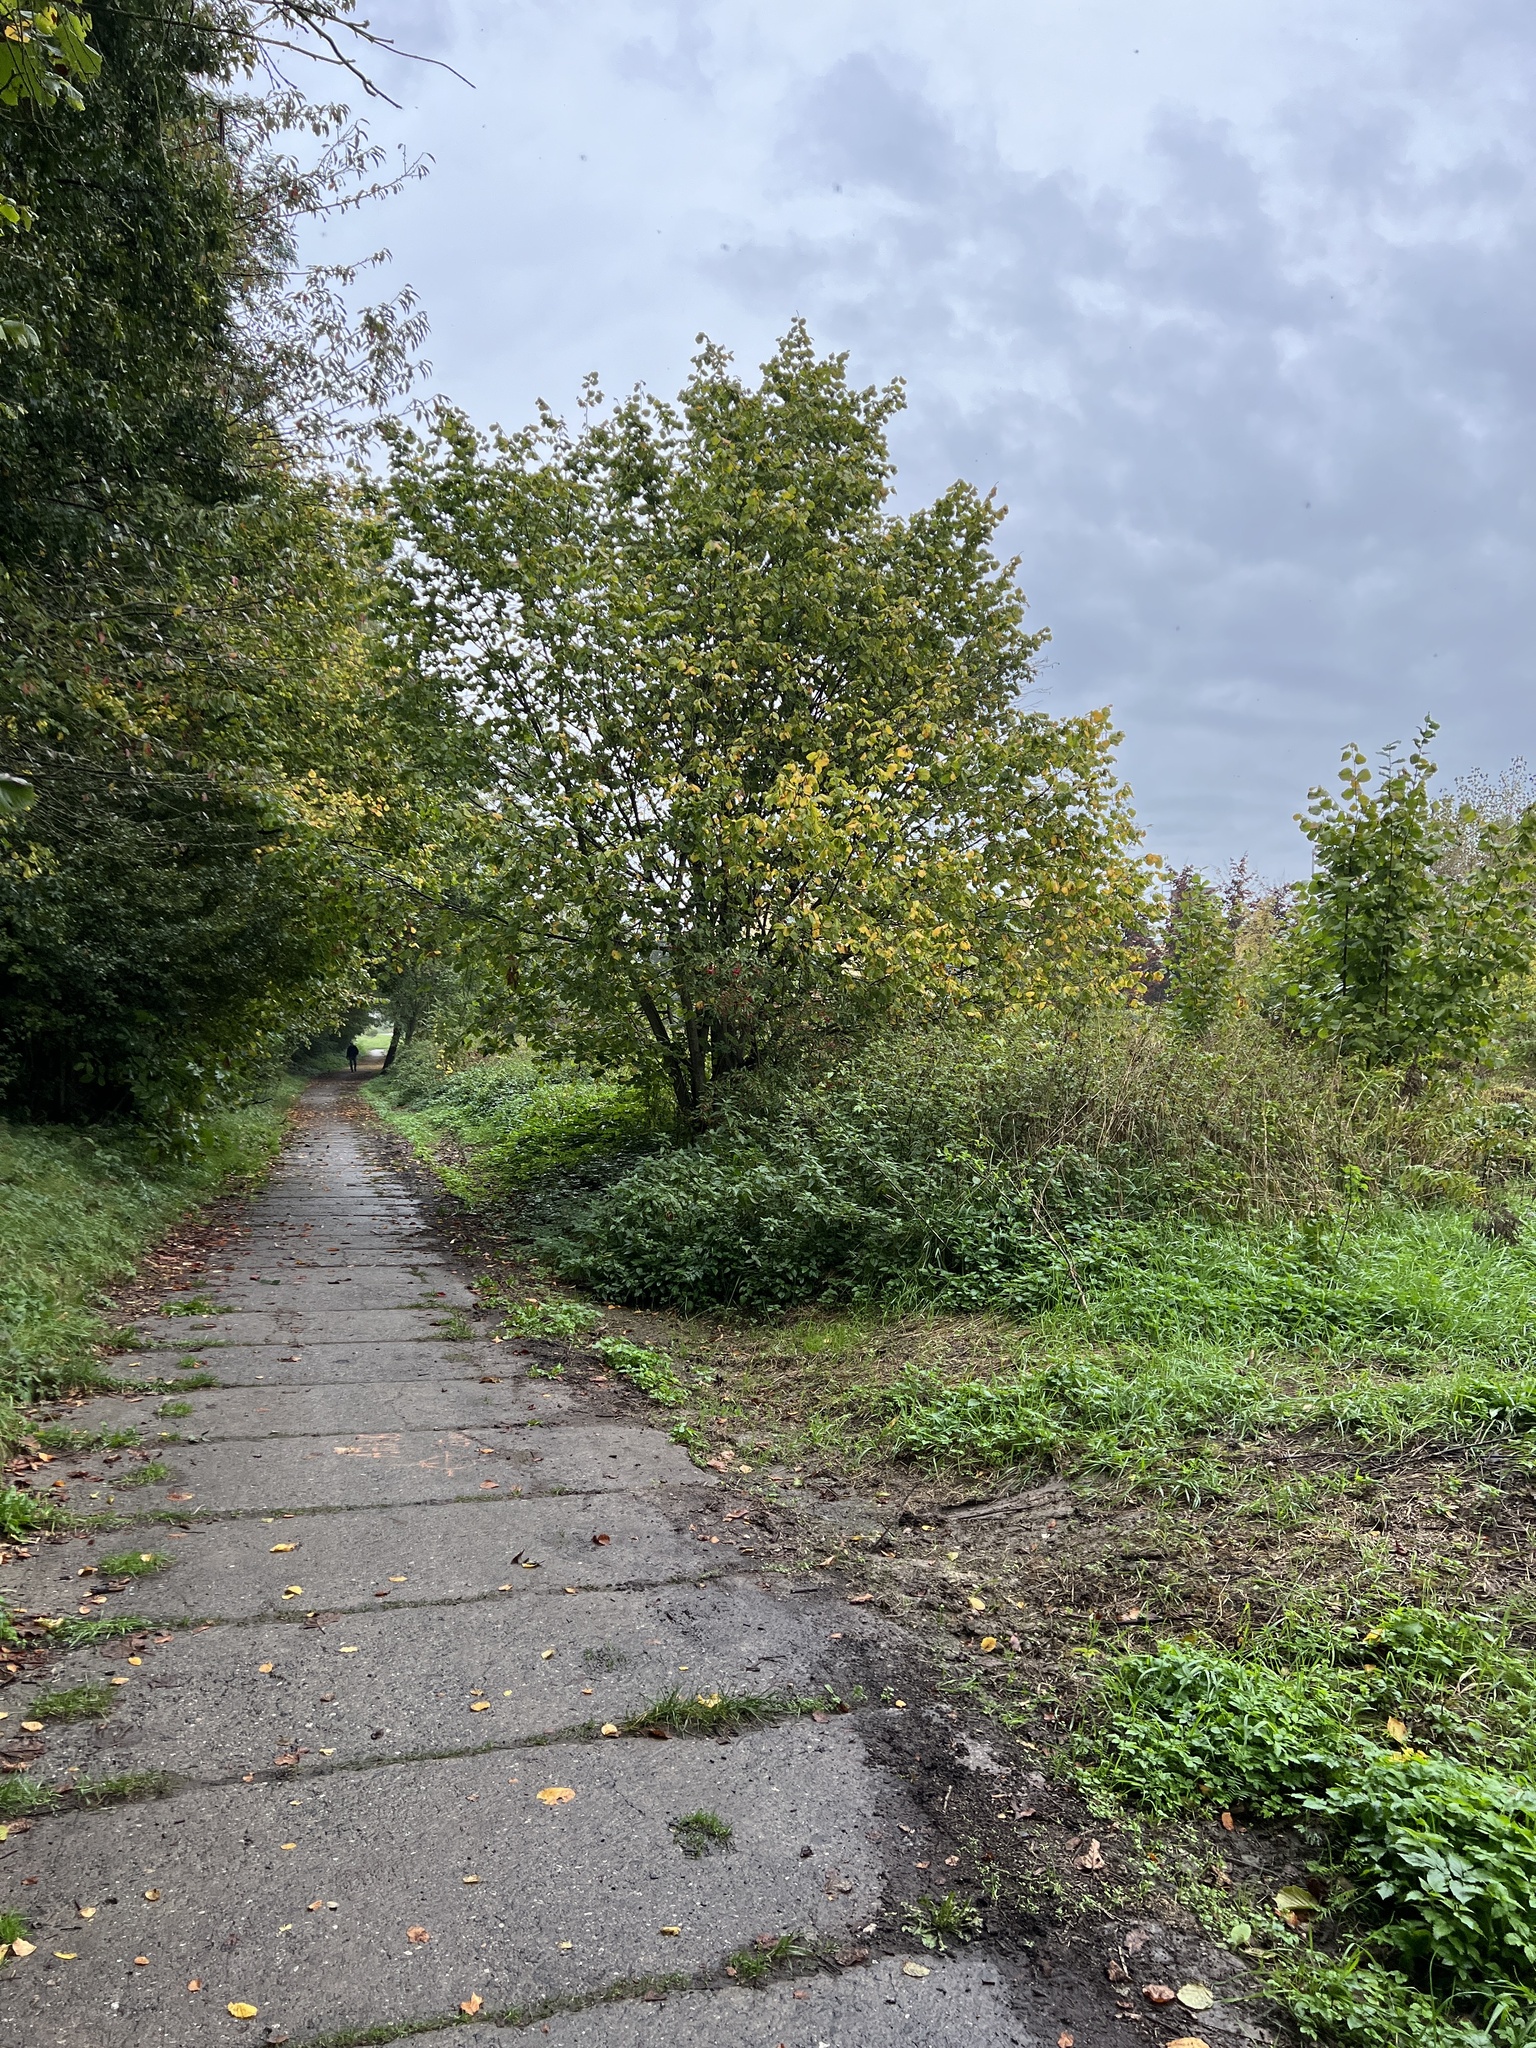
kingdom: Plantae
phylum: Tracheophyta
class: Magnoliopsida
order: Fagales
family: Betulaceae
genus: Corylus
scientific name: Corylus avellana
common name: European hazel
